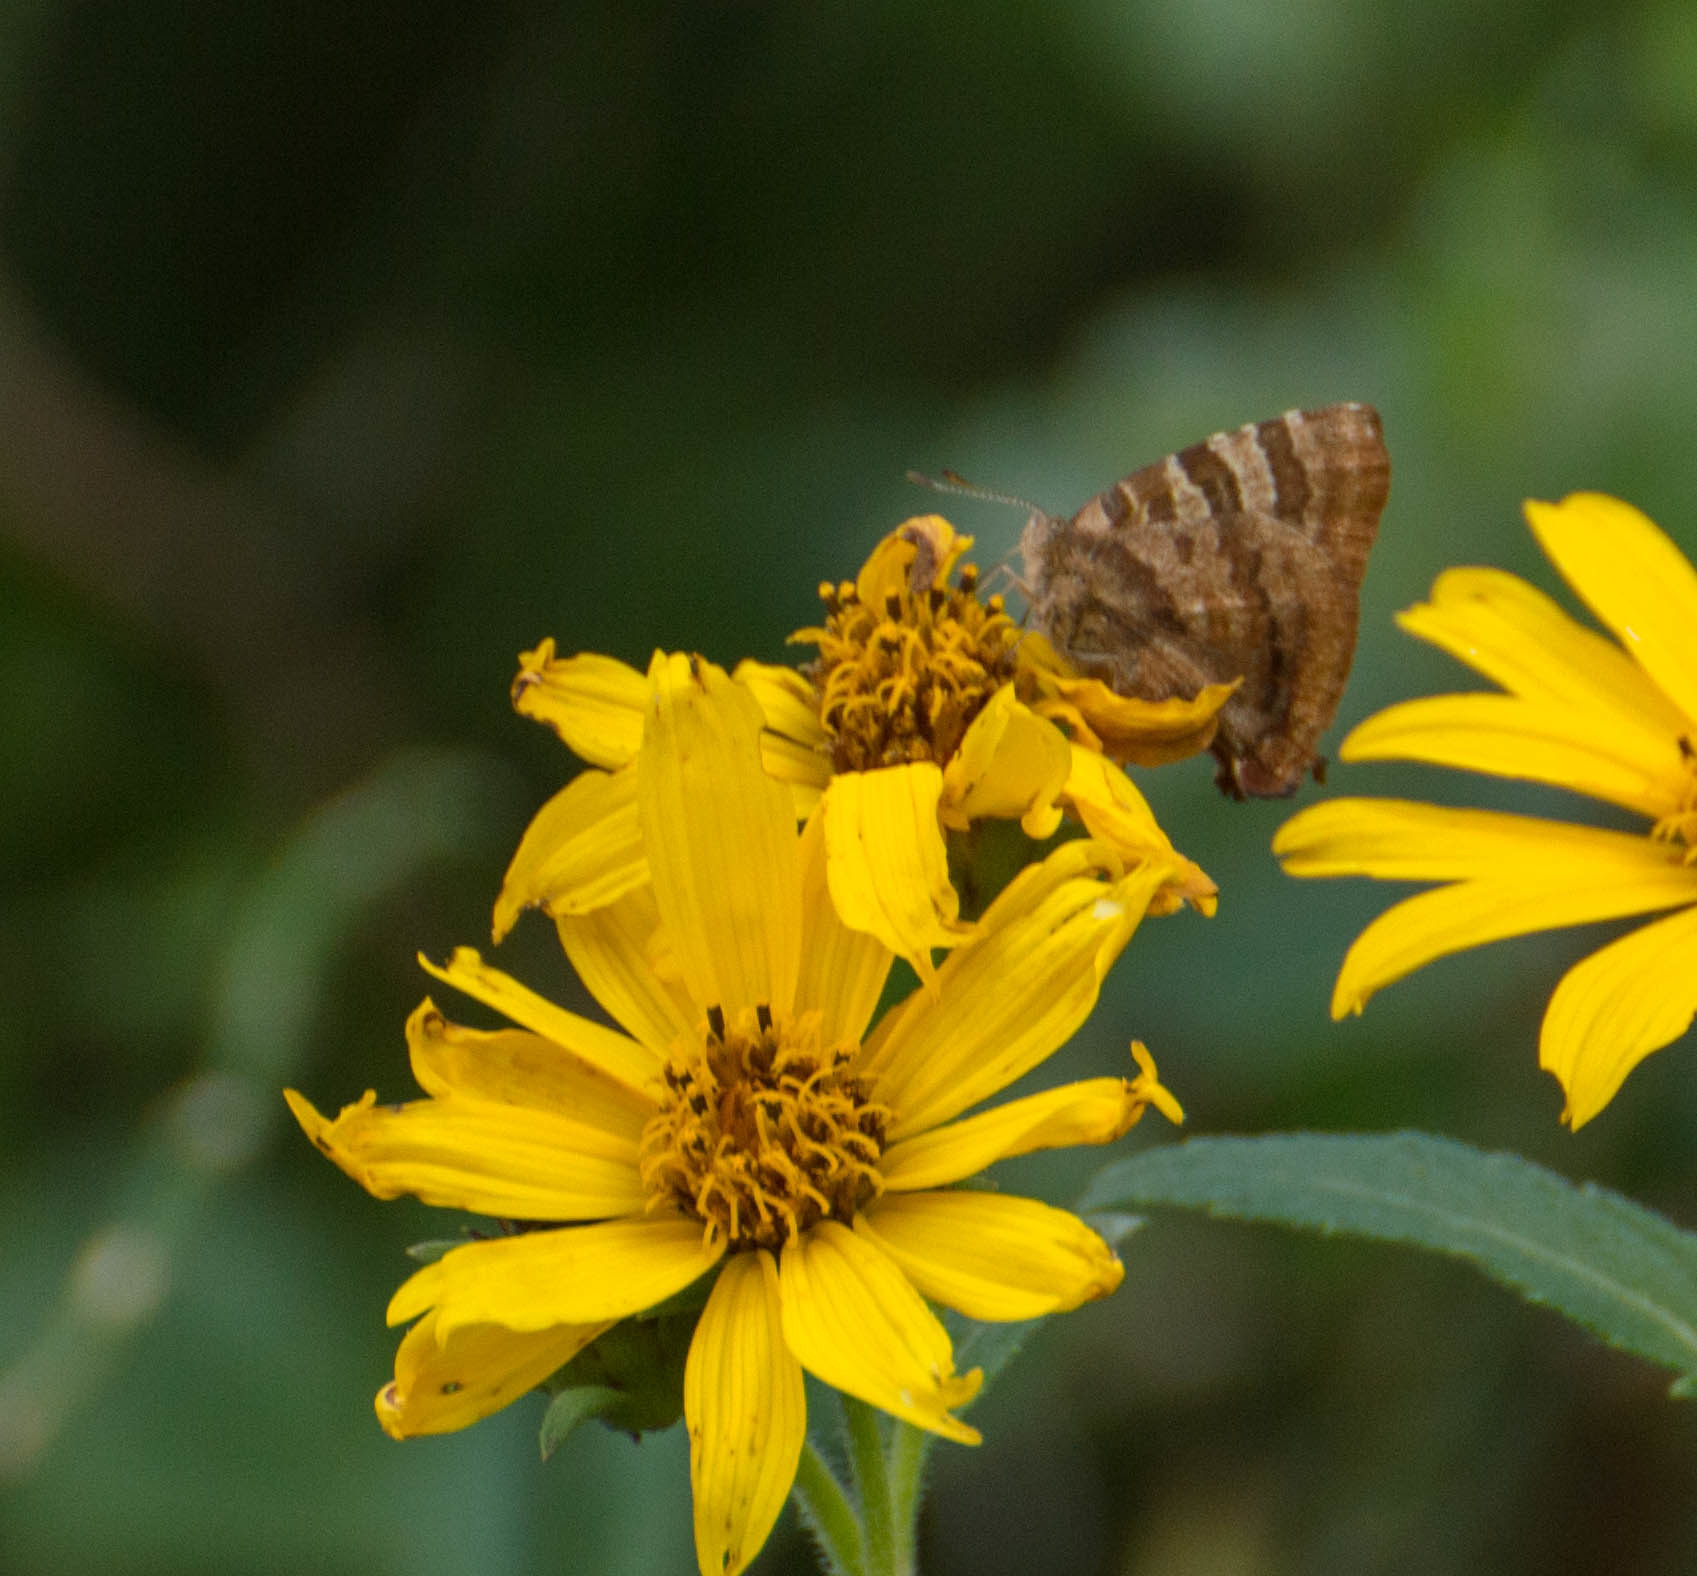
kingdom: Animalia
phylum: Arthropoda
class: Insecta
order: Lepidoptera
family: Lycaenidae
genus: Arawacus
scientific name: Arawacus ellida
